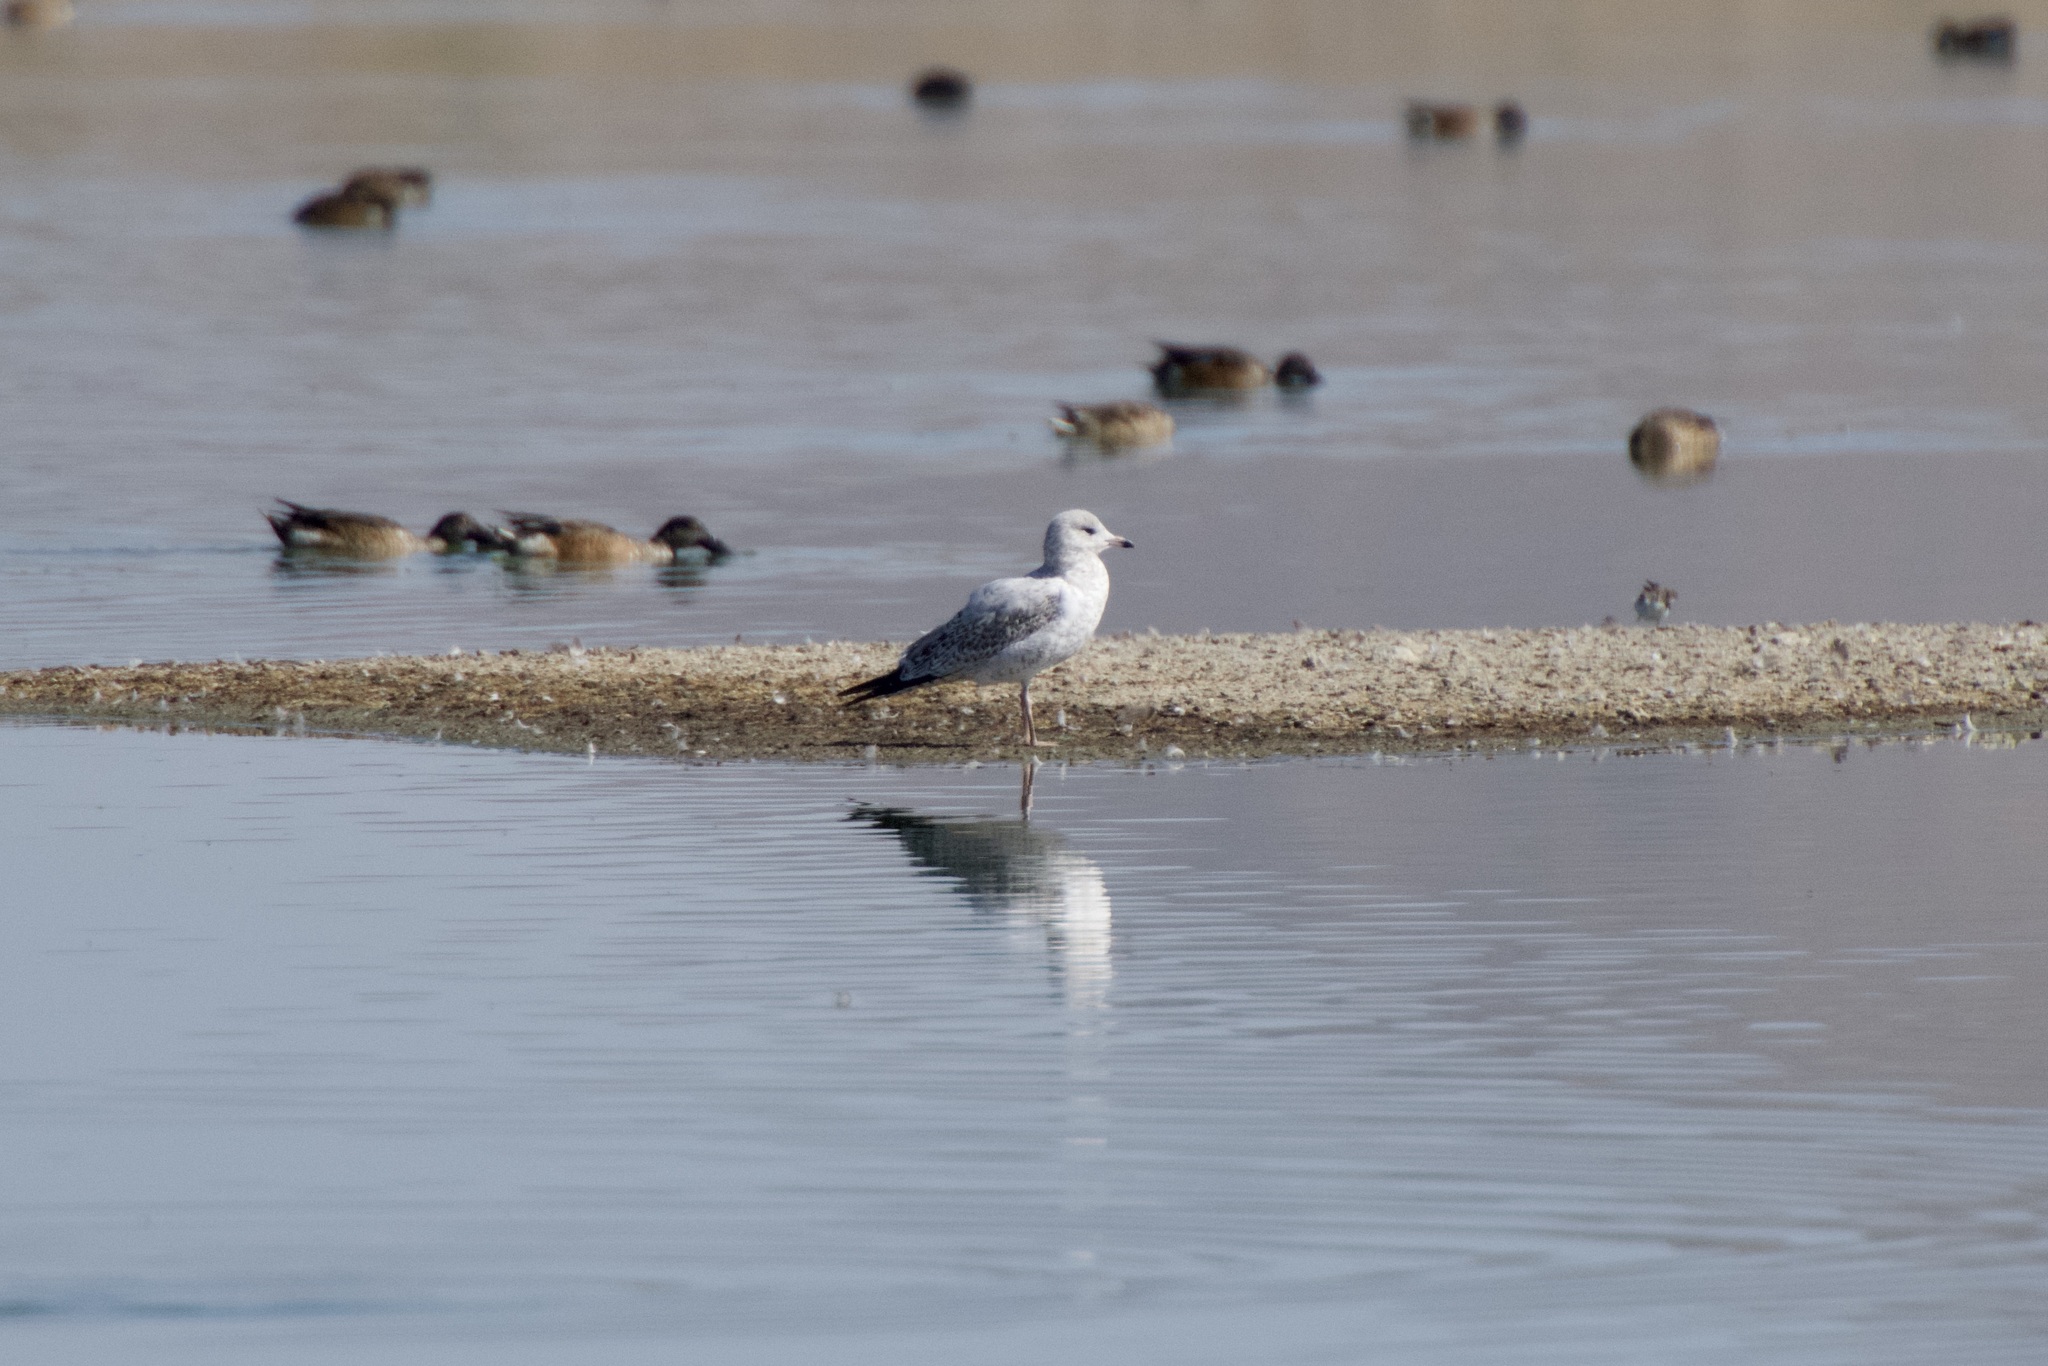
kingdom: Animalia
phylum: Chordata
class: Aves
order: Charadriiformes
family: Laridae
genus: Larus
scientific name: Larus delawarensis
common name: Ring-billed gull
